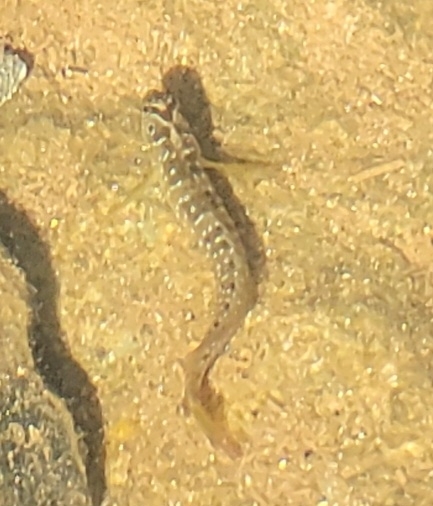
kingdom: Animalia
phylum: Chordata
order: Perciformes
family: Blenniidae
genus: Salaria
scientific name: Salaria pavo
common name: Peacock blenny
